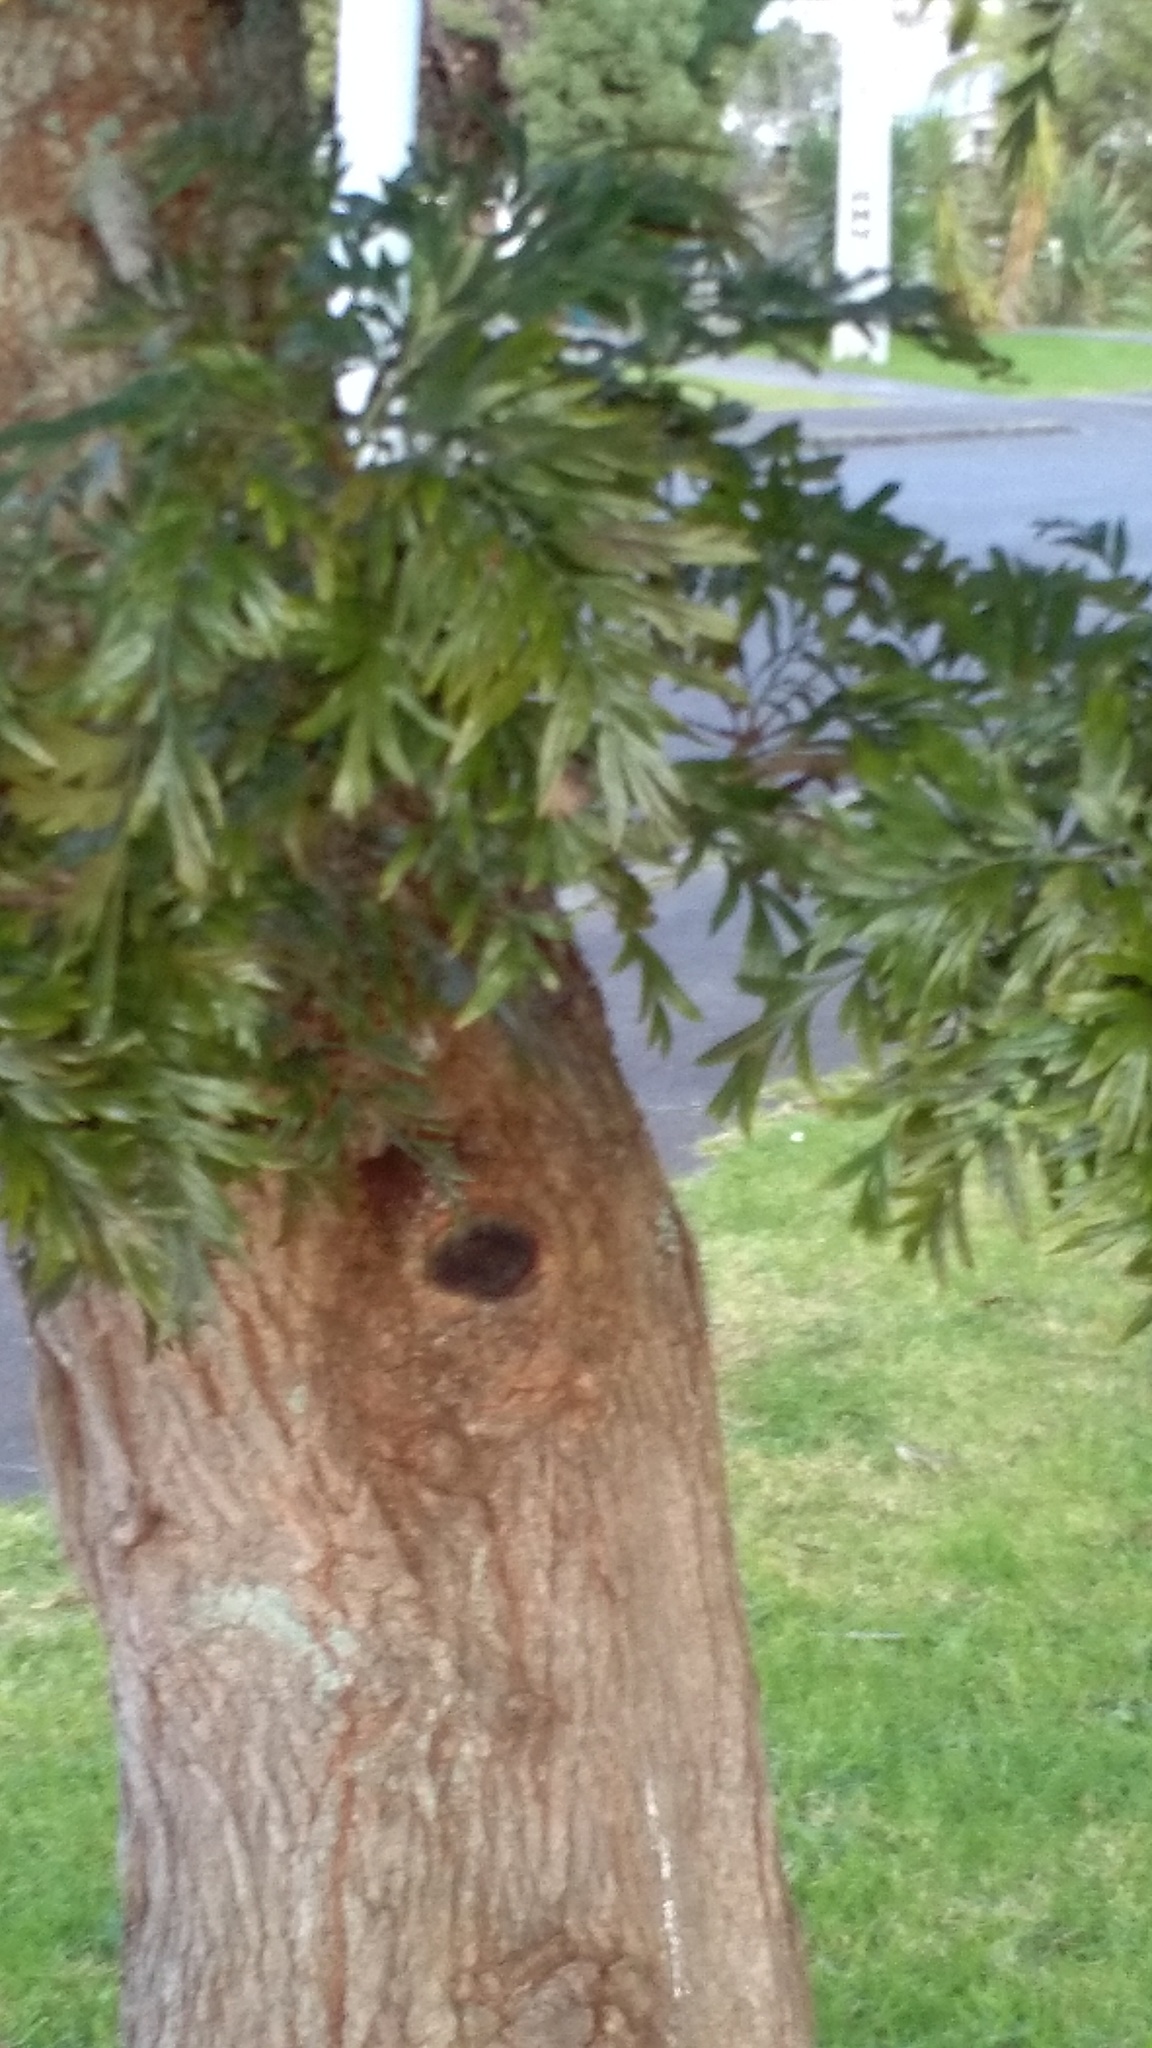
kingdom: Plantae
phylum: Tracheophyta
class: Magnoliopsida
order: Proteales
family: Proteaceae
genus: Grevillea
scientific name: Grevillea robusta
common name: Silkoak
